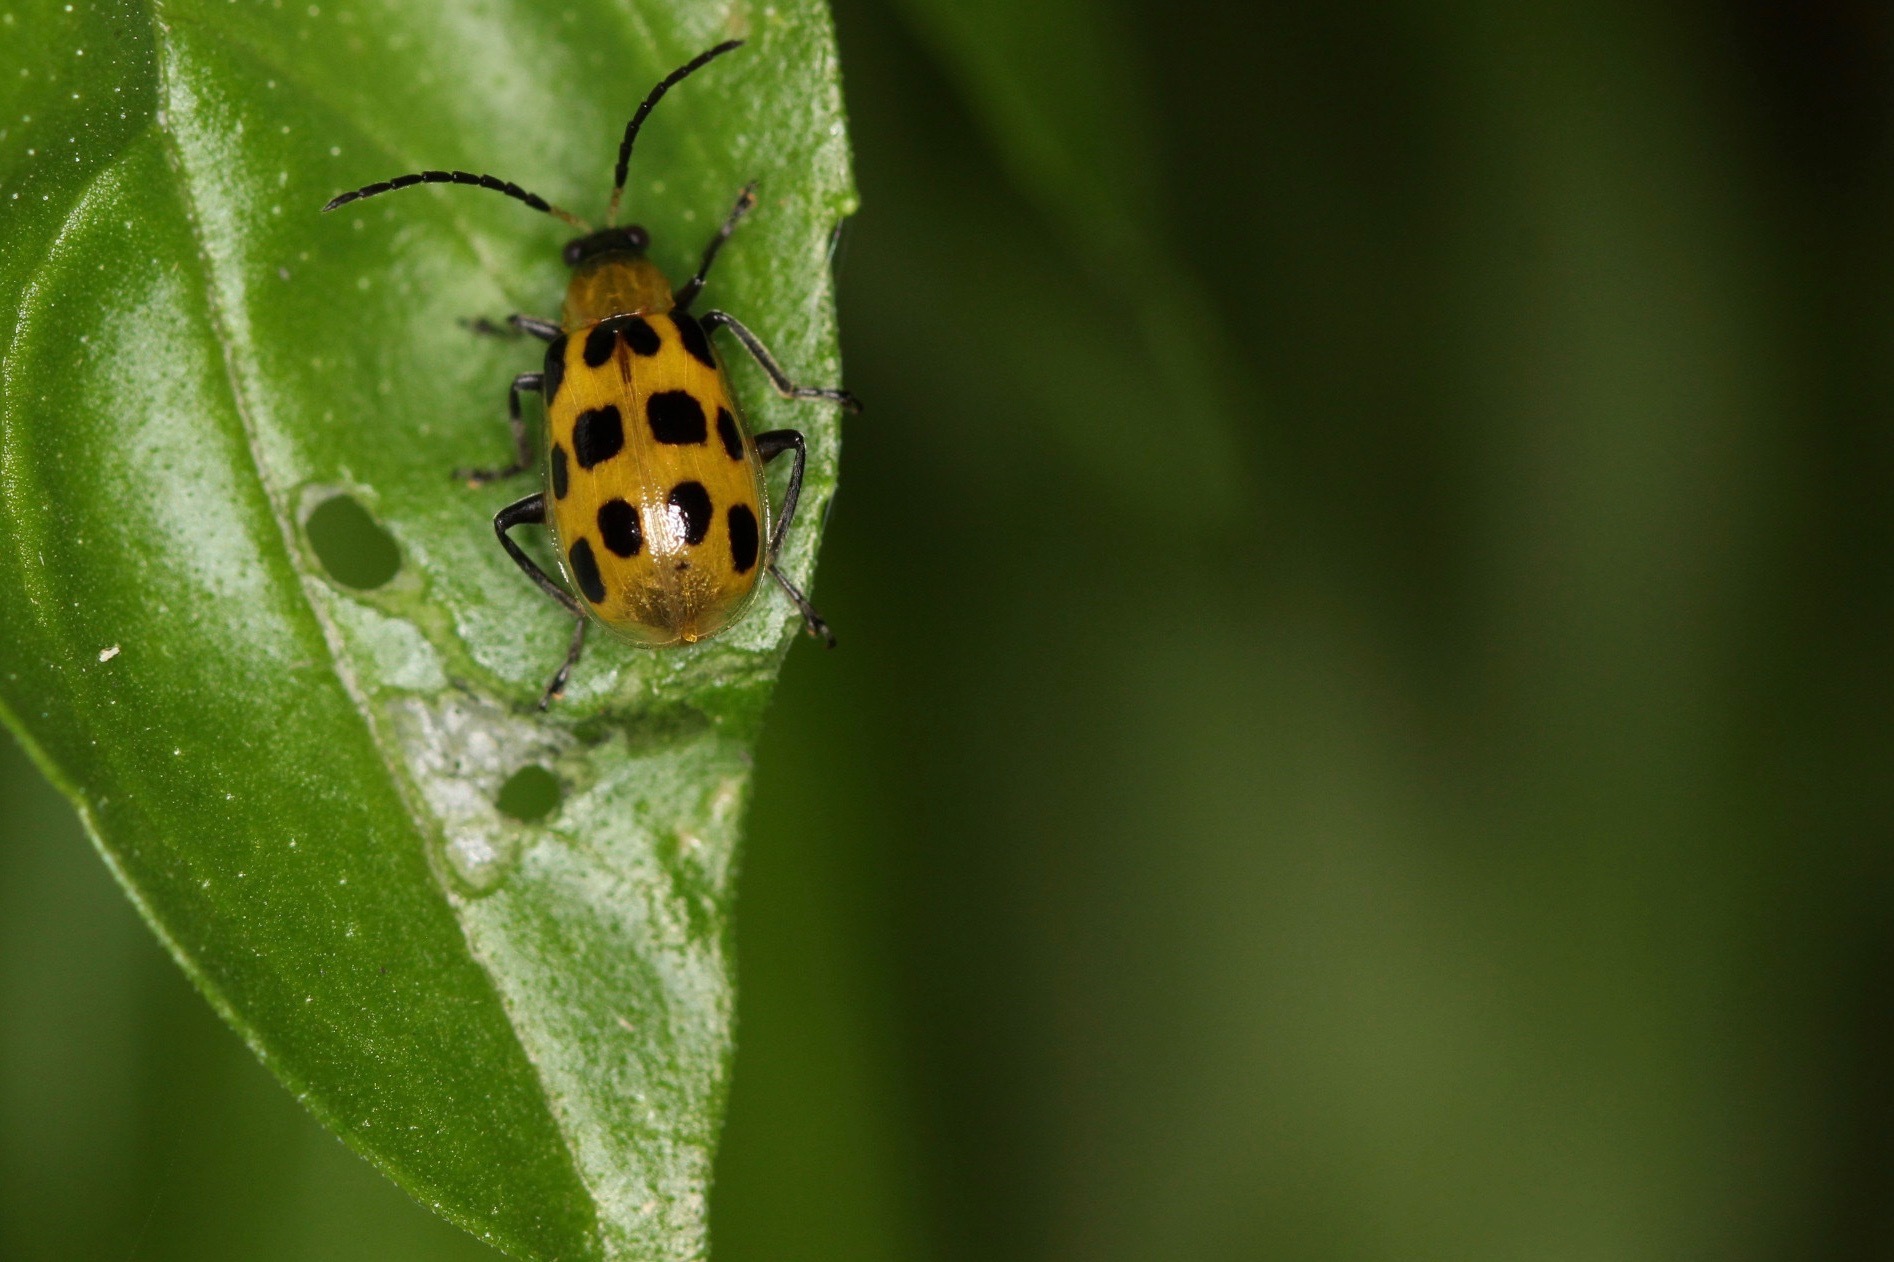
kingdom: Animalia
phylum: Arthropoda
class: Insecta
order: Coleoptera
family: Chrysomelidae
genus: Diabrotica
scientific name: Diabrotica undecimpunctata
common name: Spotted cucumber beetle
